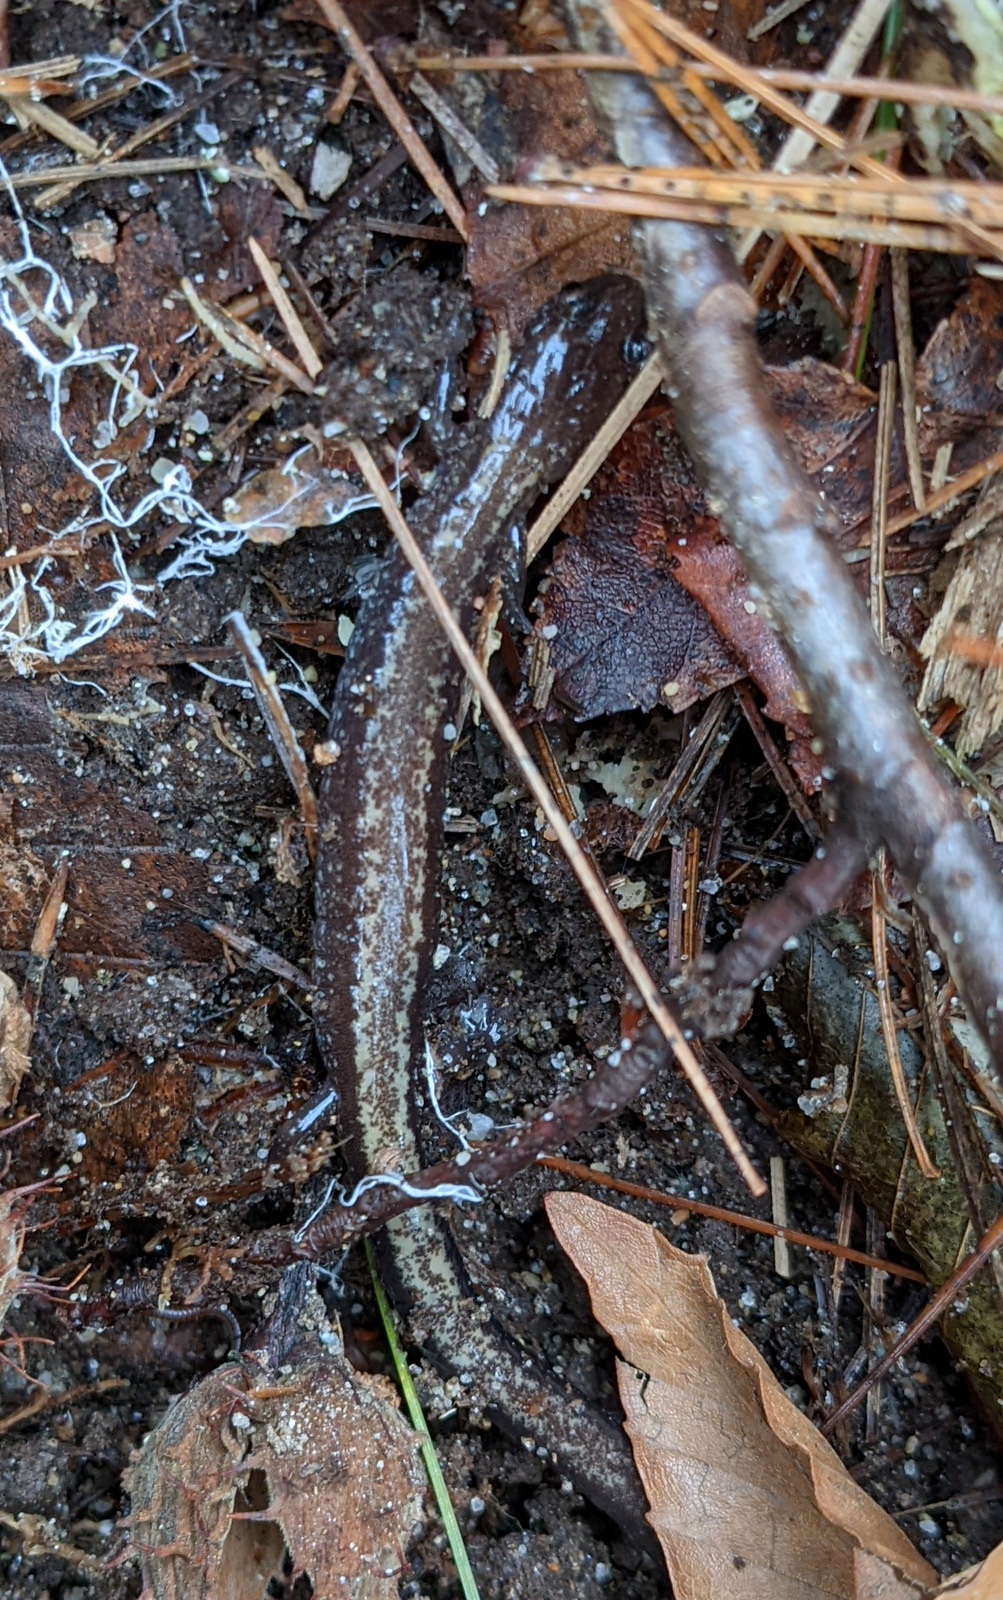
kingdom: Animalia
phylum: Chordata
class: Amphibia
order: Caudata
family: Plethodontidae
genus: Plethodon
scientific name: Plethodon cinereus
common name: Redback salamander
